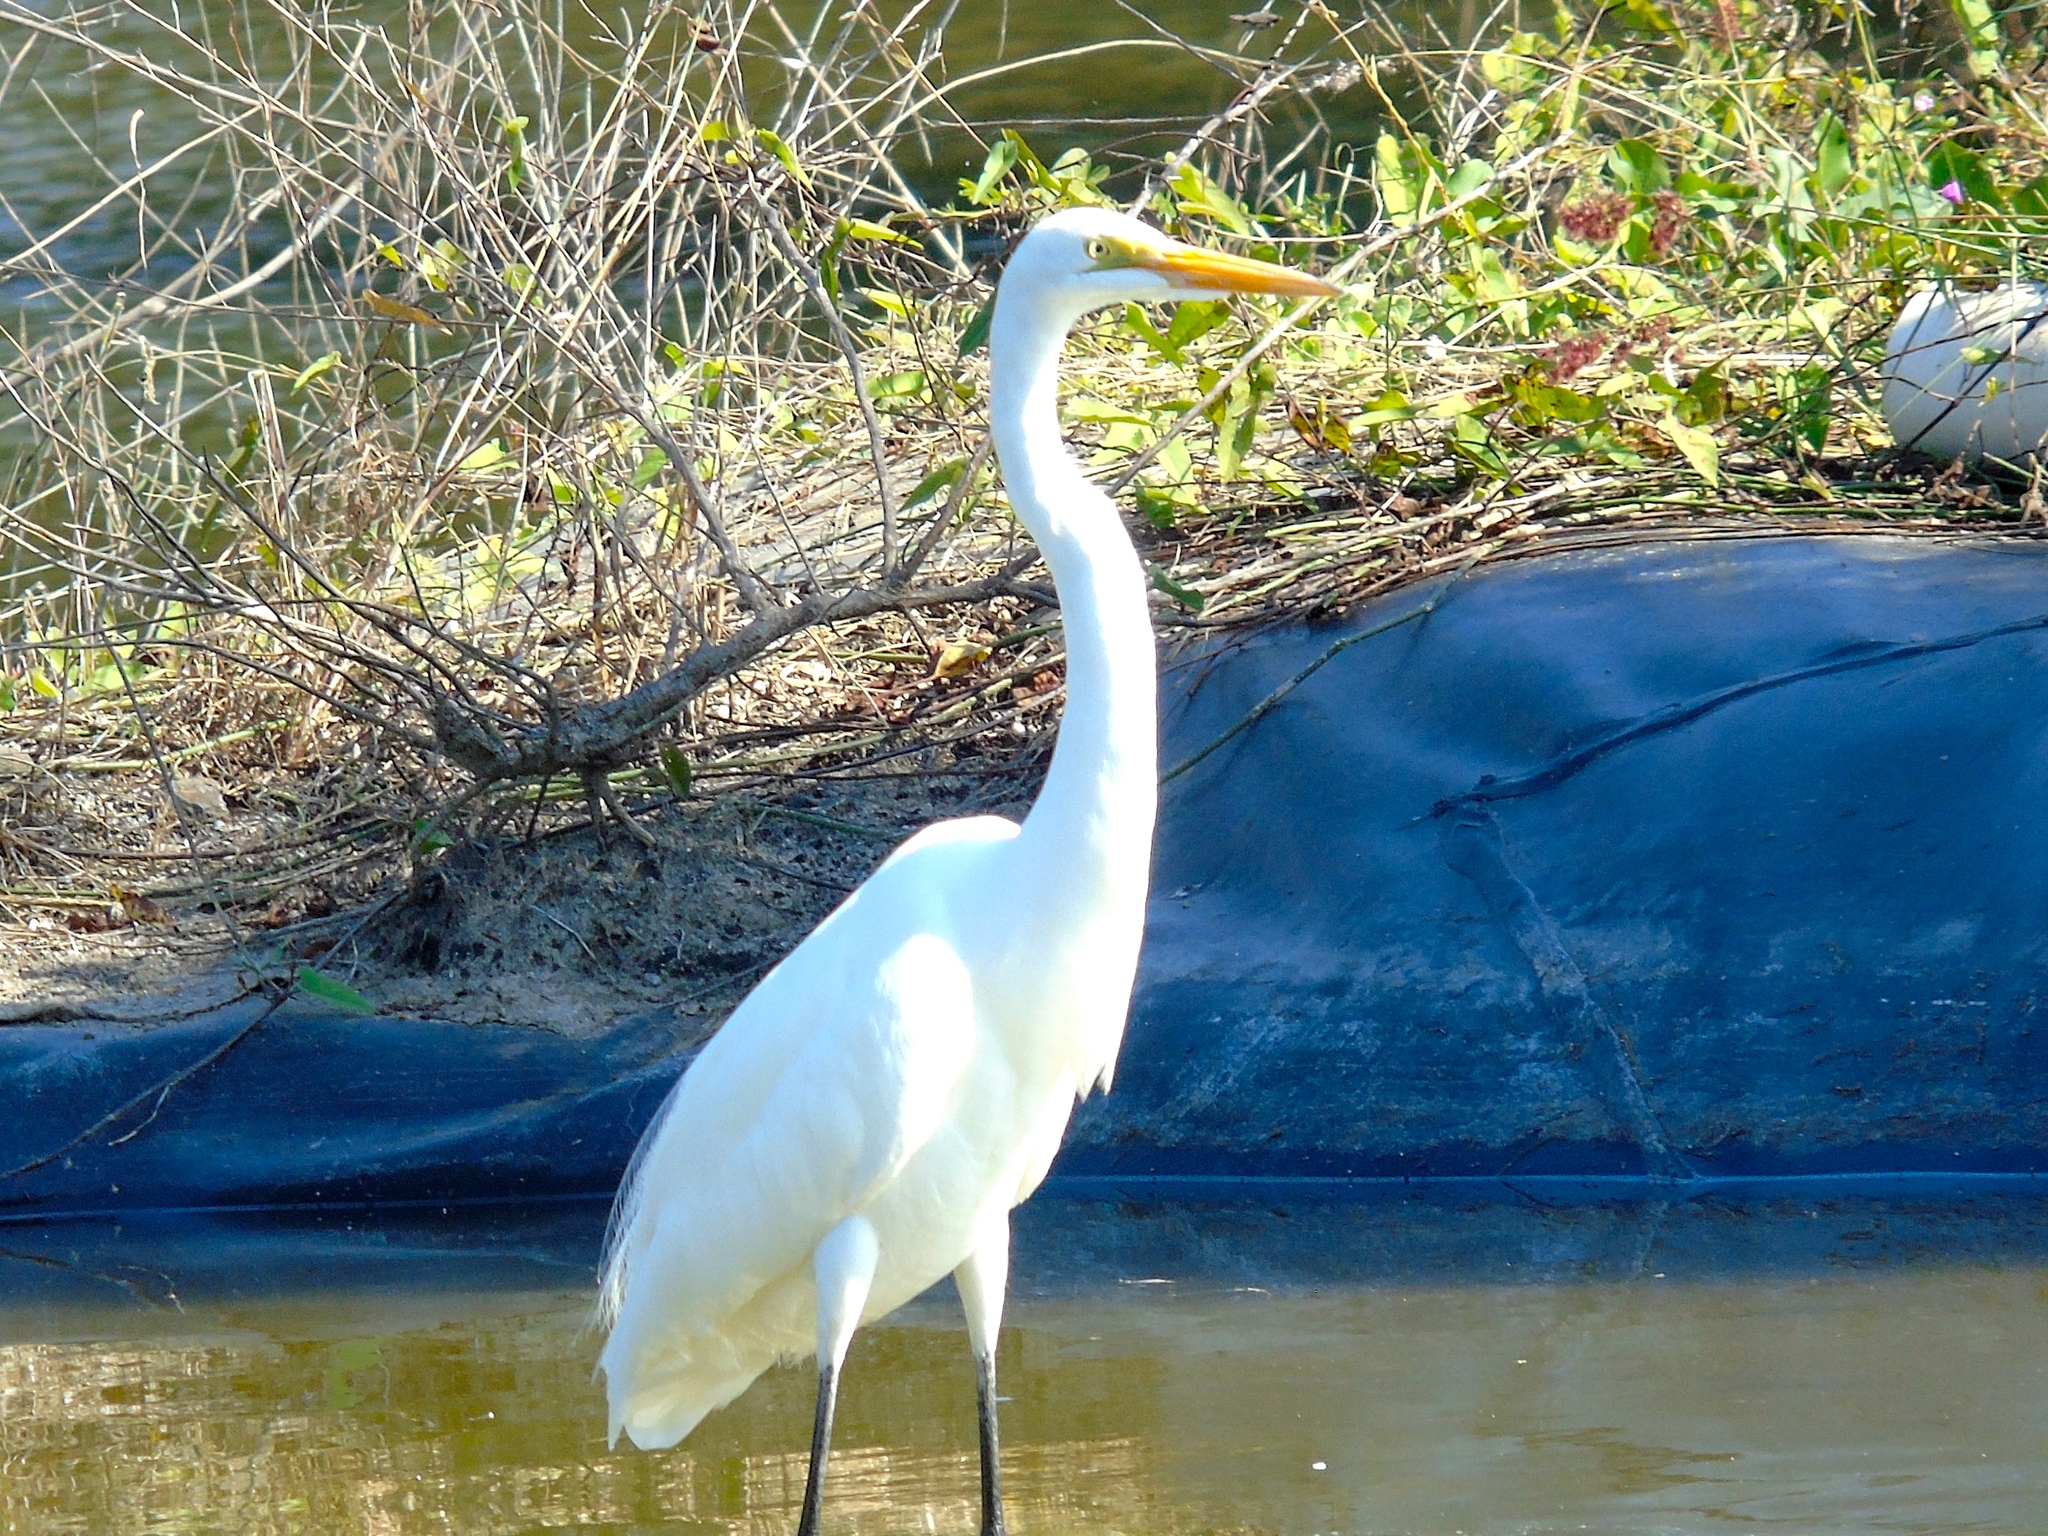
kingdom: Animalia
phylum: Chordata
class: Aves
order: Pelecaniformes
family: Ardeidae
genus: Ardea
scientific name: Ardea alba
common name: Great egret
